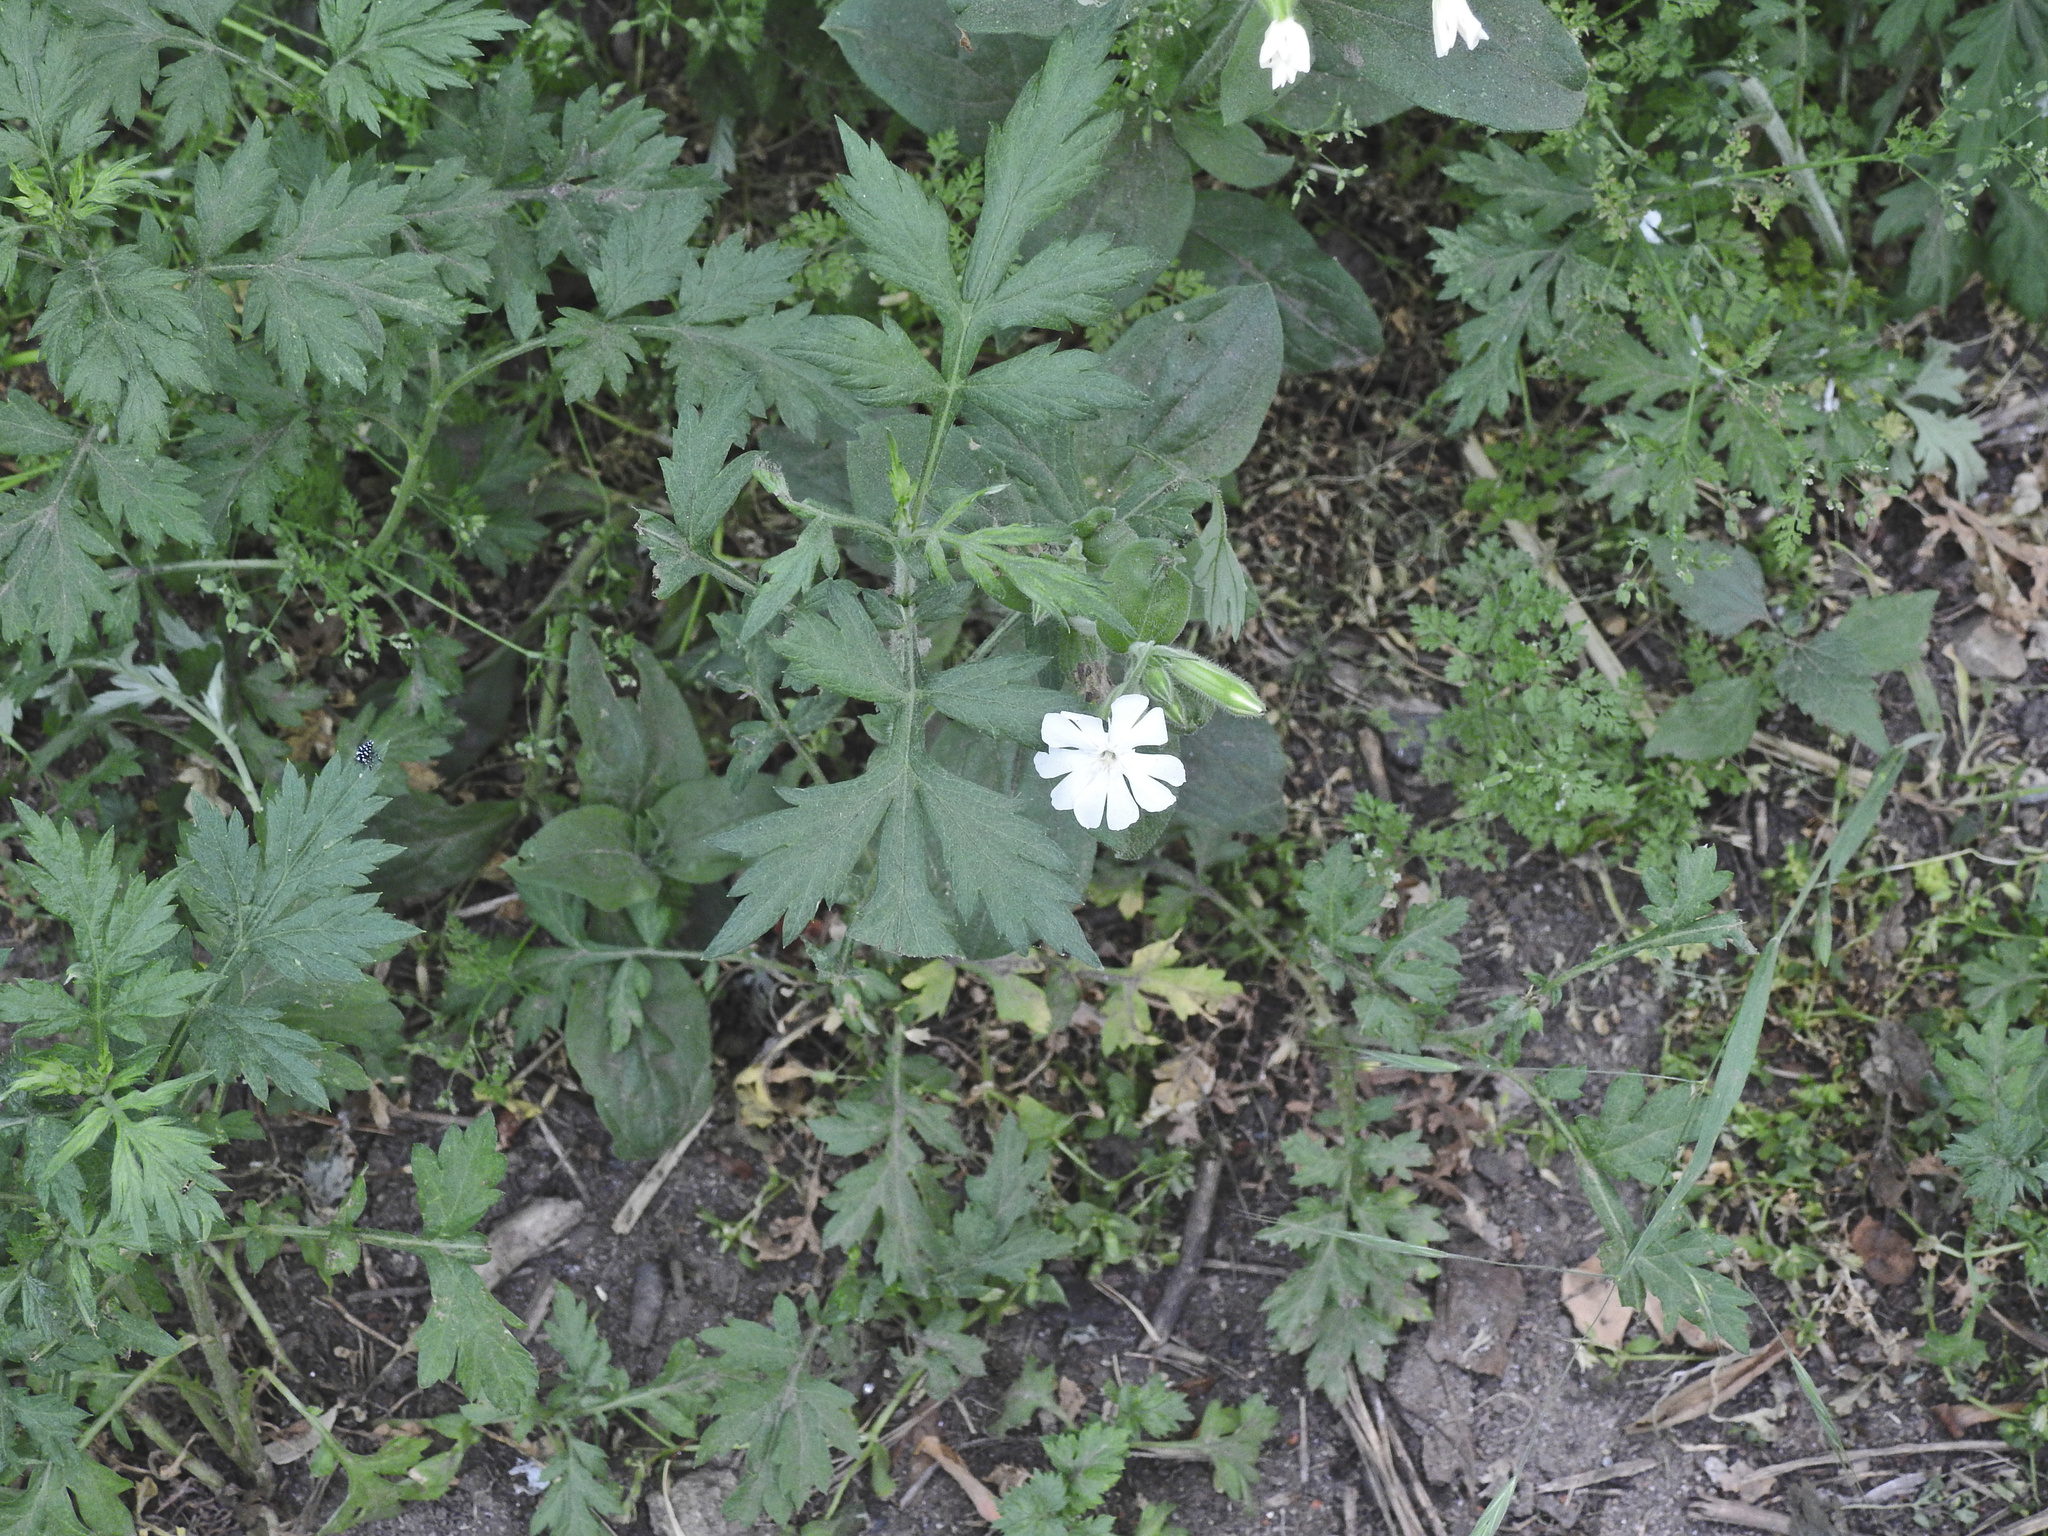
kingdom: Plantae
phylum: Tracheophyta
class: Magnoliopsida
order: Caryophyllales
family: Caryophyllaceae
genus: Silene
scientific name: Silene latifolia
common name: White campion
